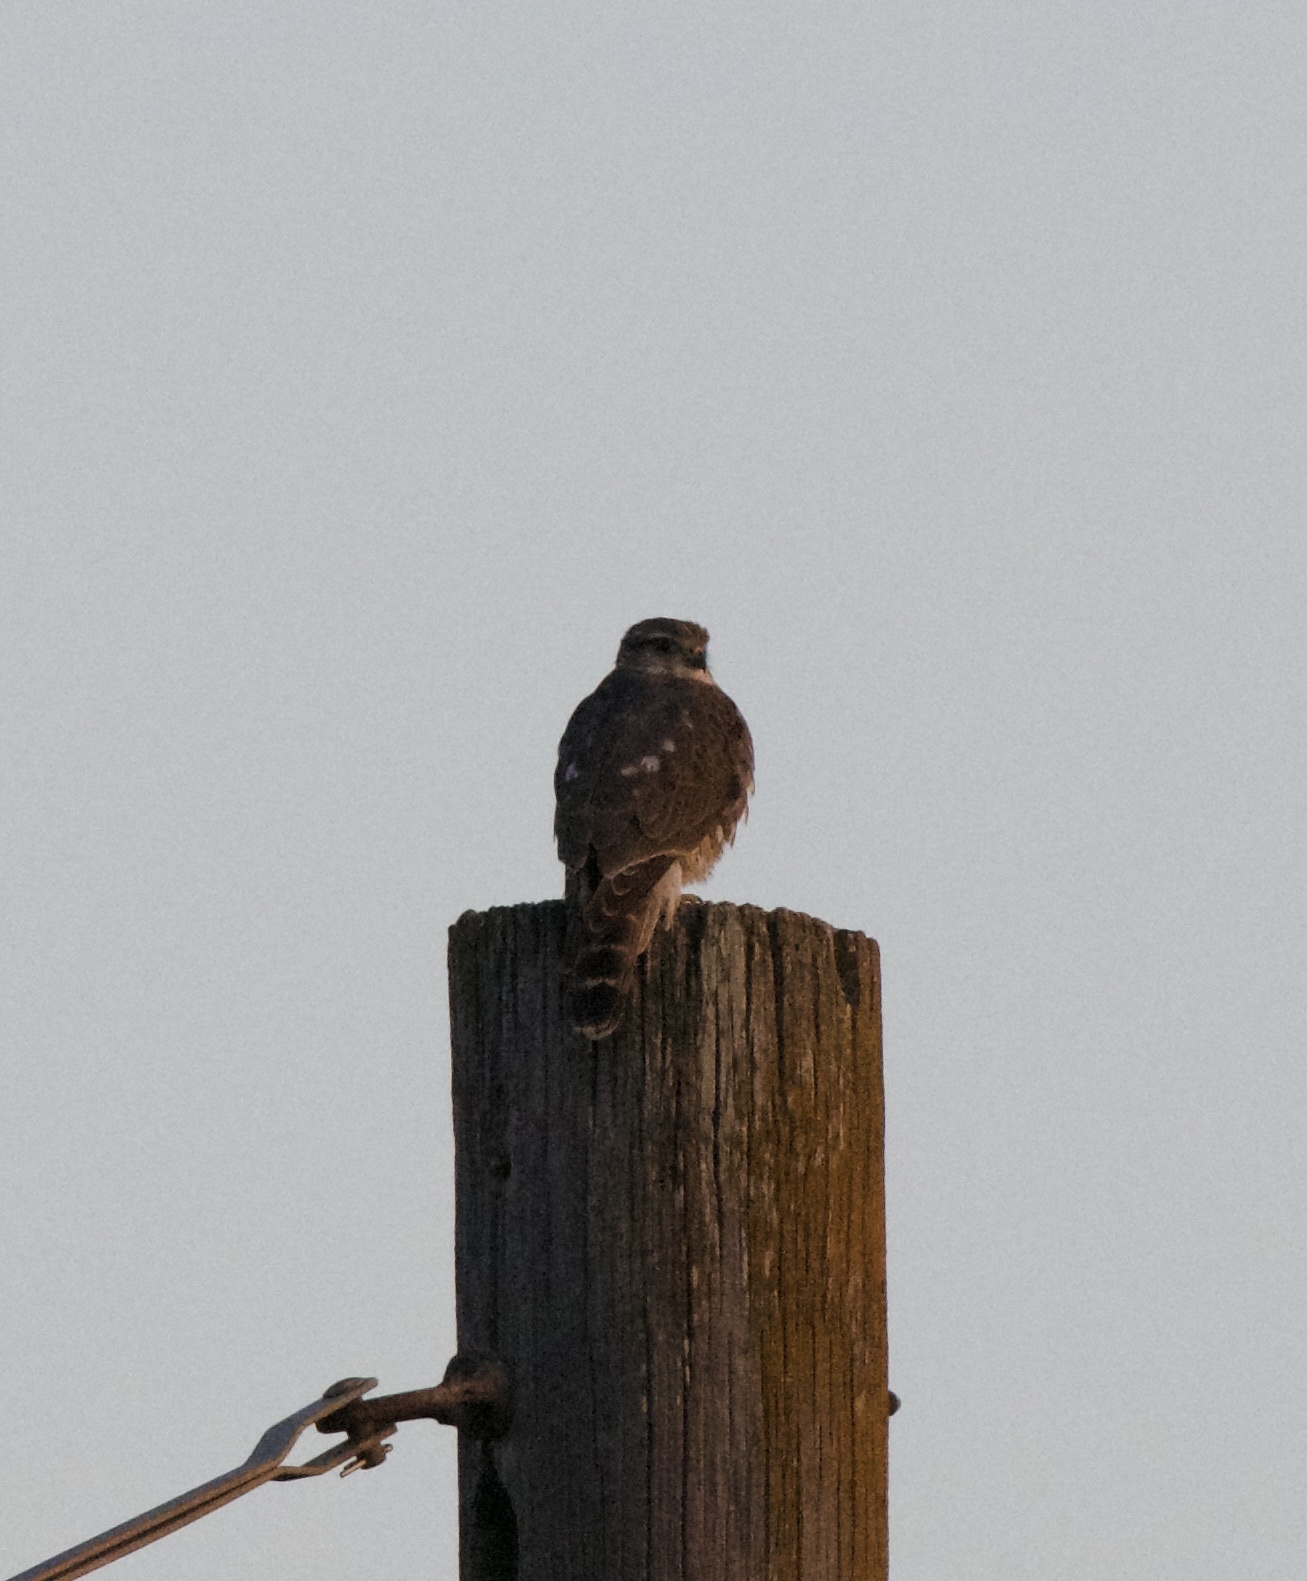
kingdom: Animalia
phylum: Chordata
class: Aves
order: Falconiformes
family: Falconidae
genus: Falco
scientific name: Falco columbarius
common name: Merlin
